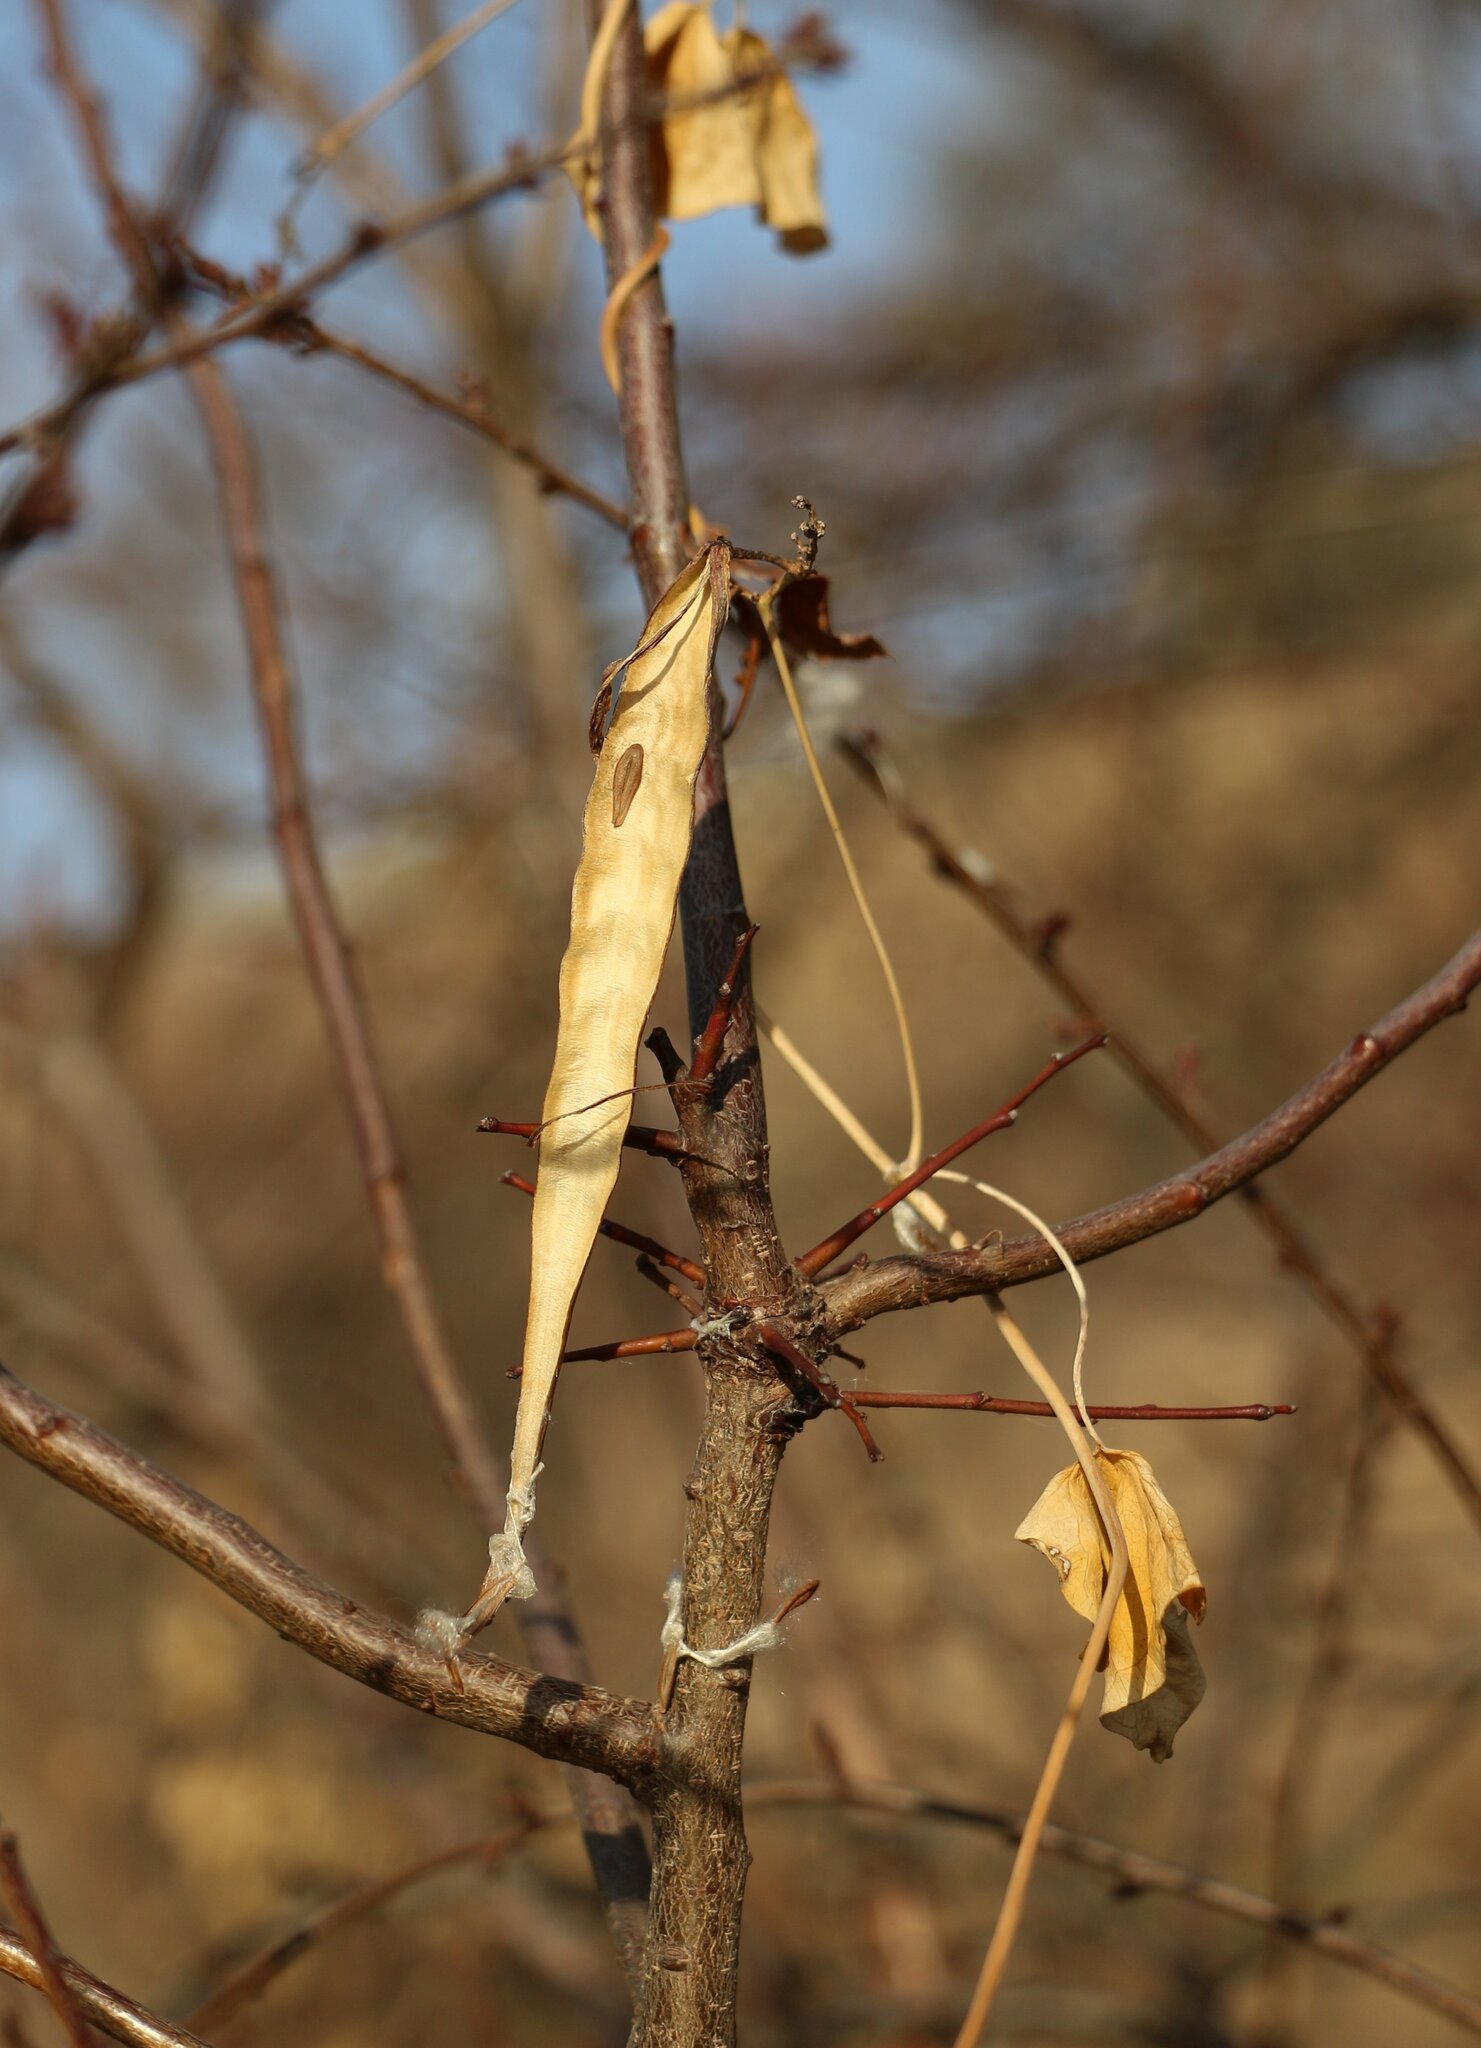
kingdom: Plantae
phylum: Tracheophyta
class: Magnoliopsida
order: Gentianales
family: Apocynaceae
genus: Cynanchum
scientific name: Cynanchum acutum
